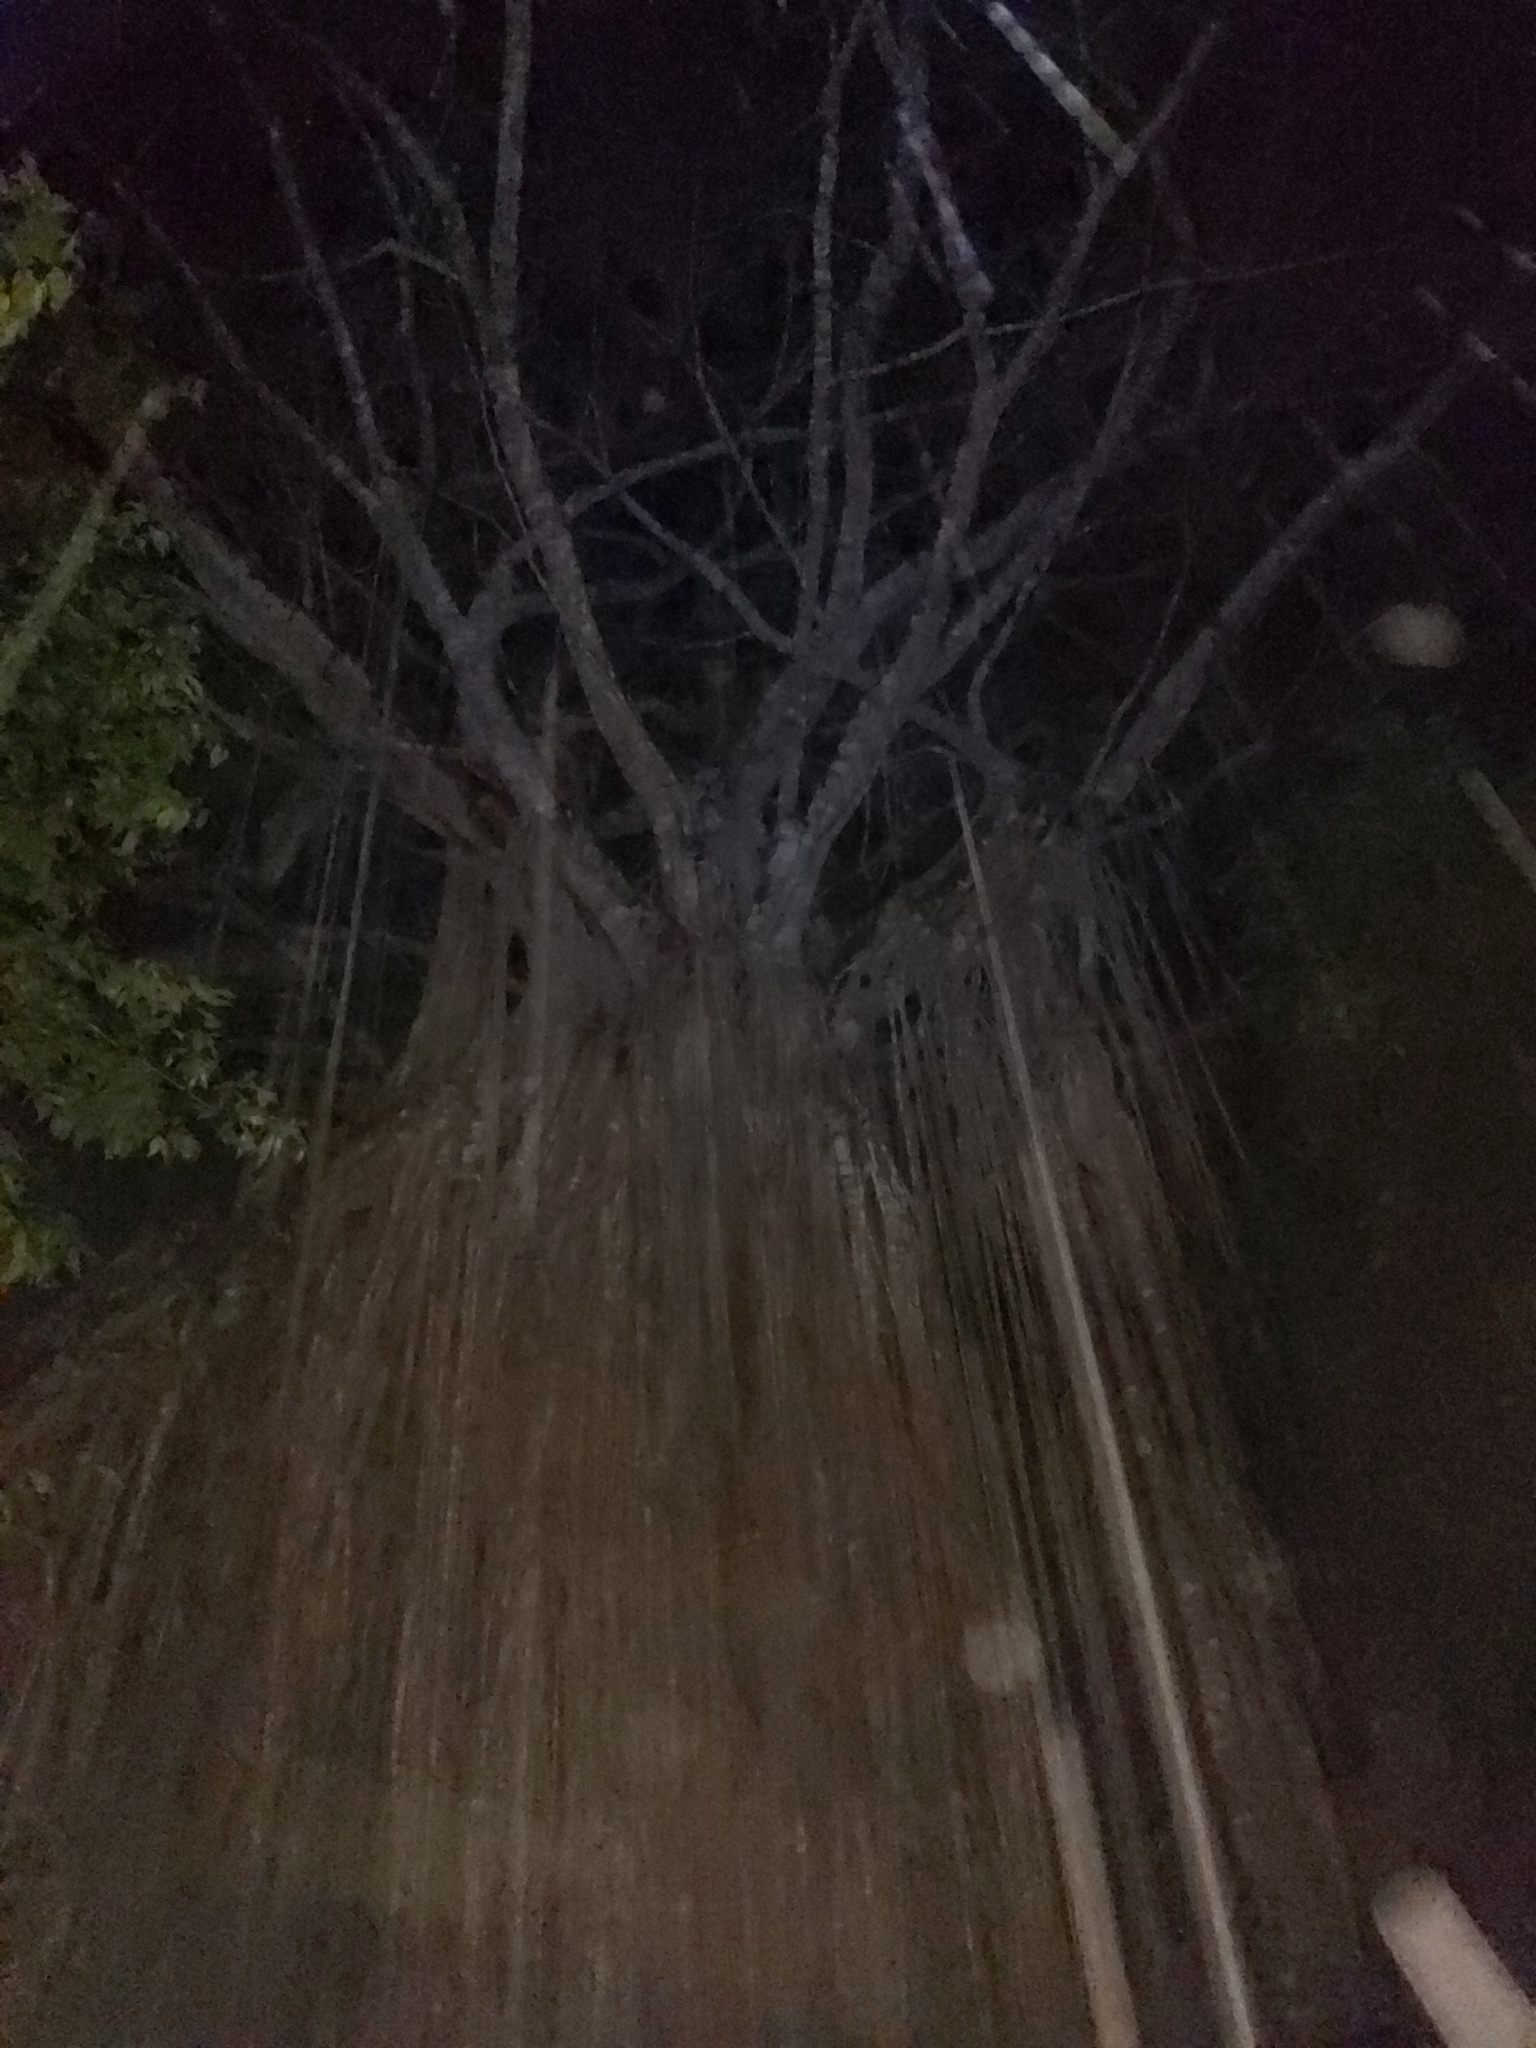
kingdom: Plantae
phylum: Tracheophyta
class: Magnoliopsida
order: Rosales
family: Moraceae
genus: Ficus
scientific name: Ficus virens
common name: Spotted fig
